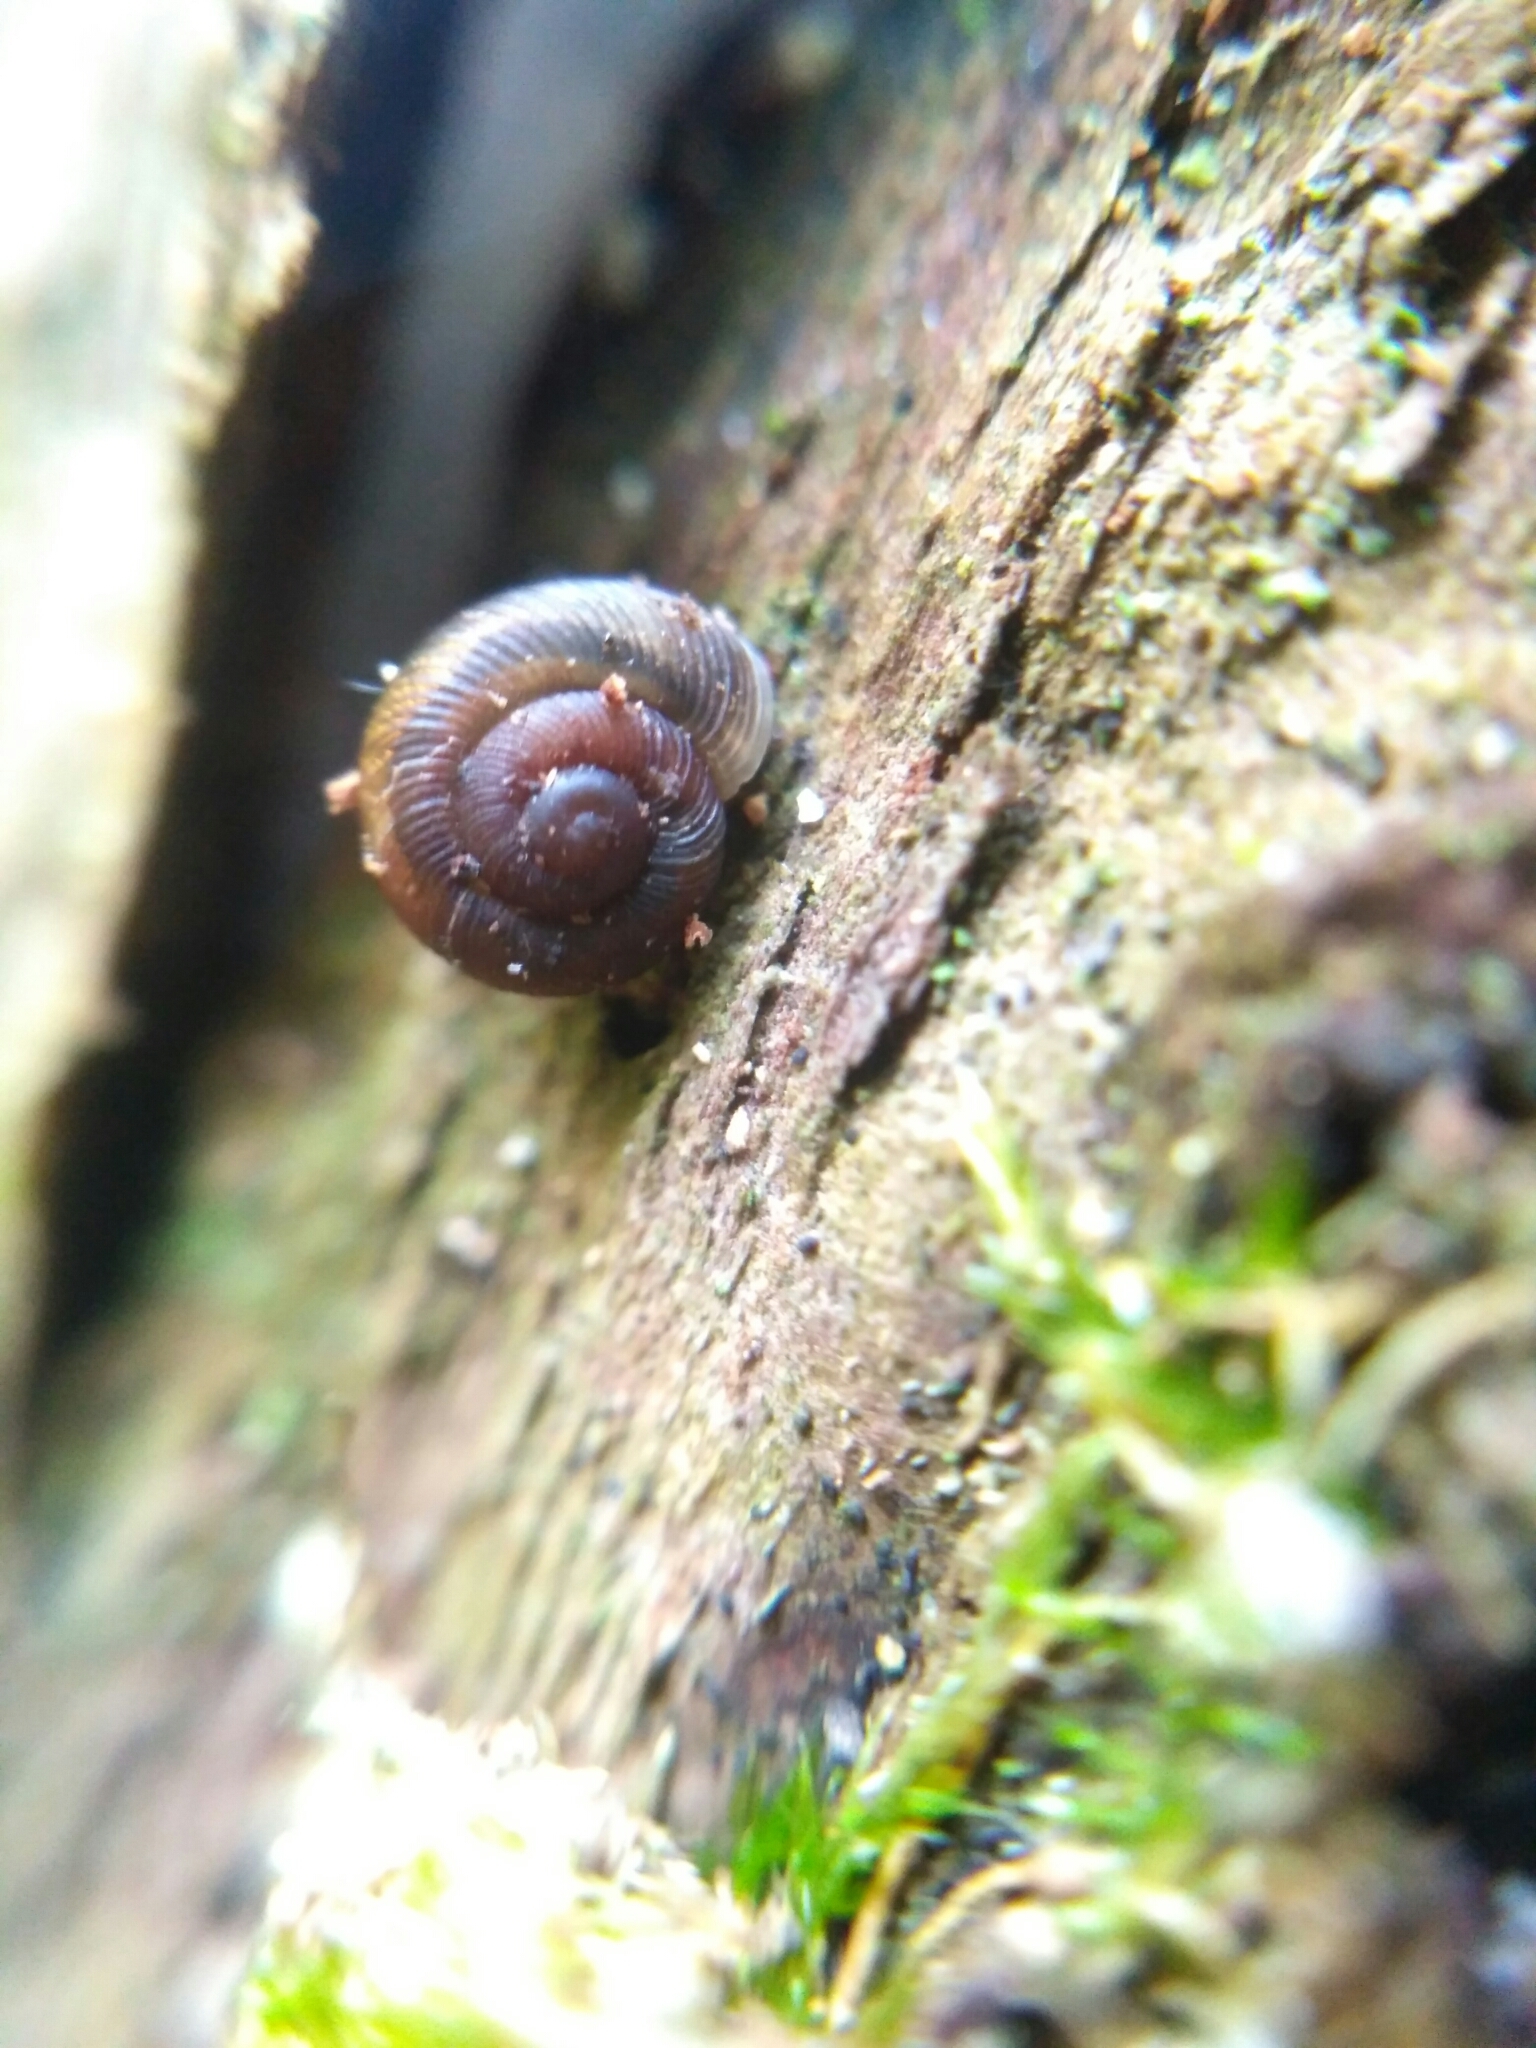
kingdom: Animalia
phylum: Mollusca
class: Gastropoda
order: Stylommatophora
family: Discidae
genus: Discus
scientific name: Discus ruderatus
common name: Brown disc snail
